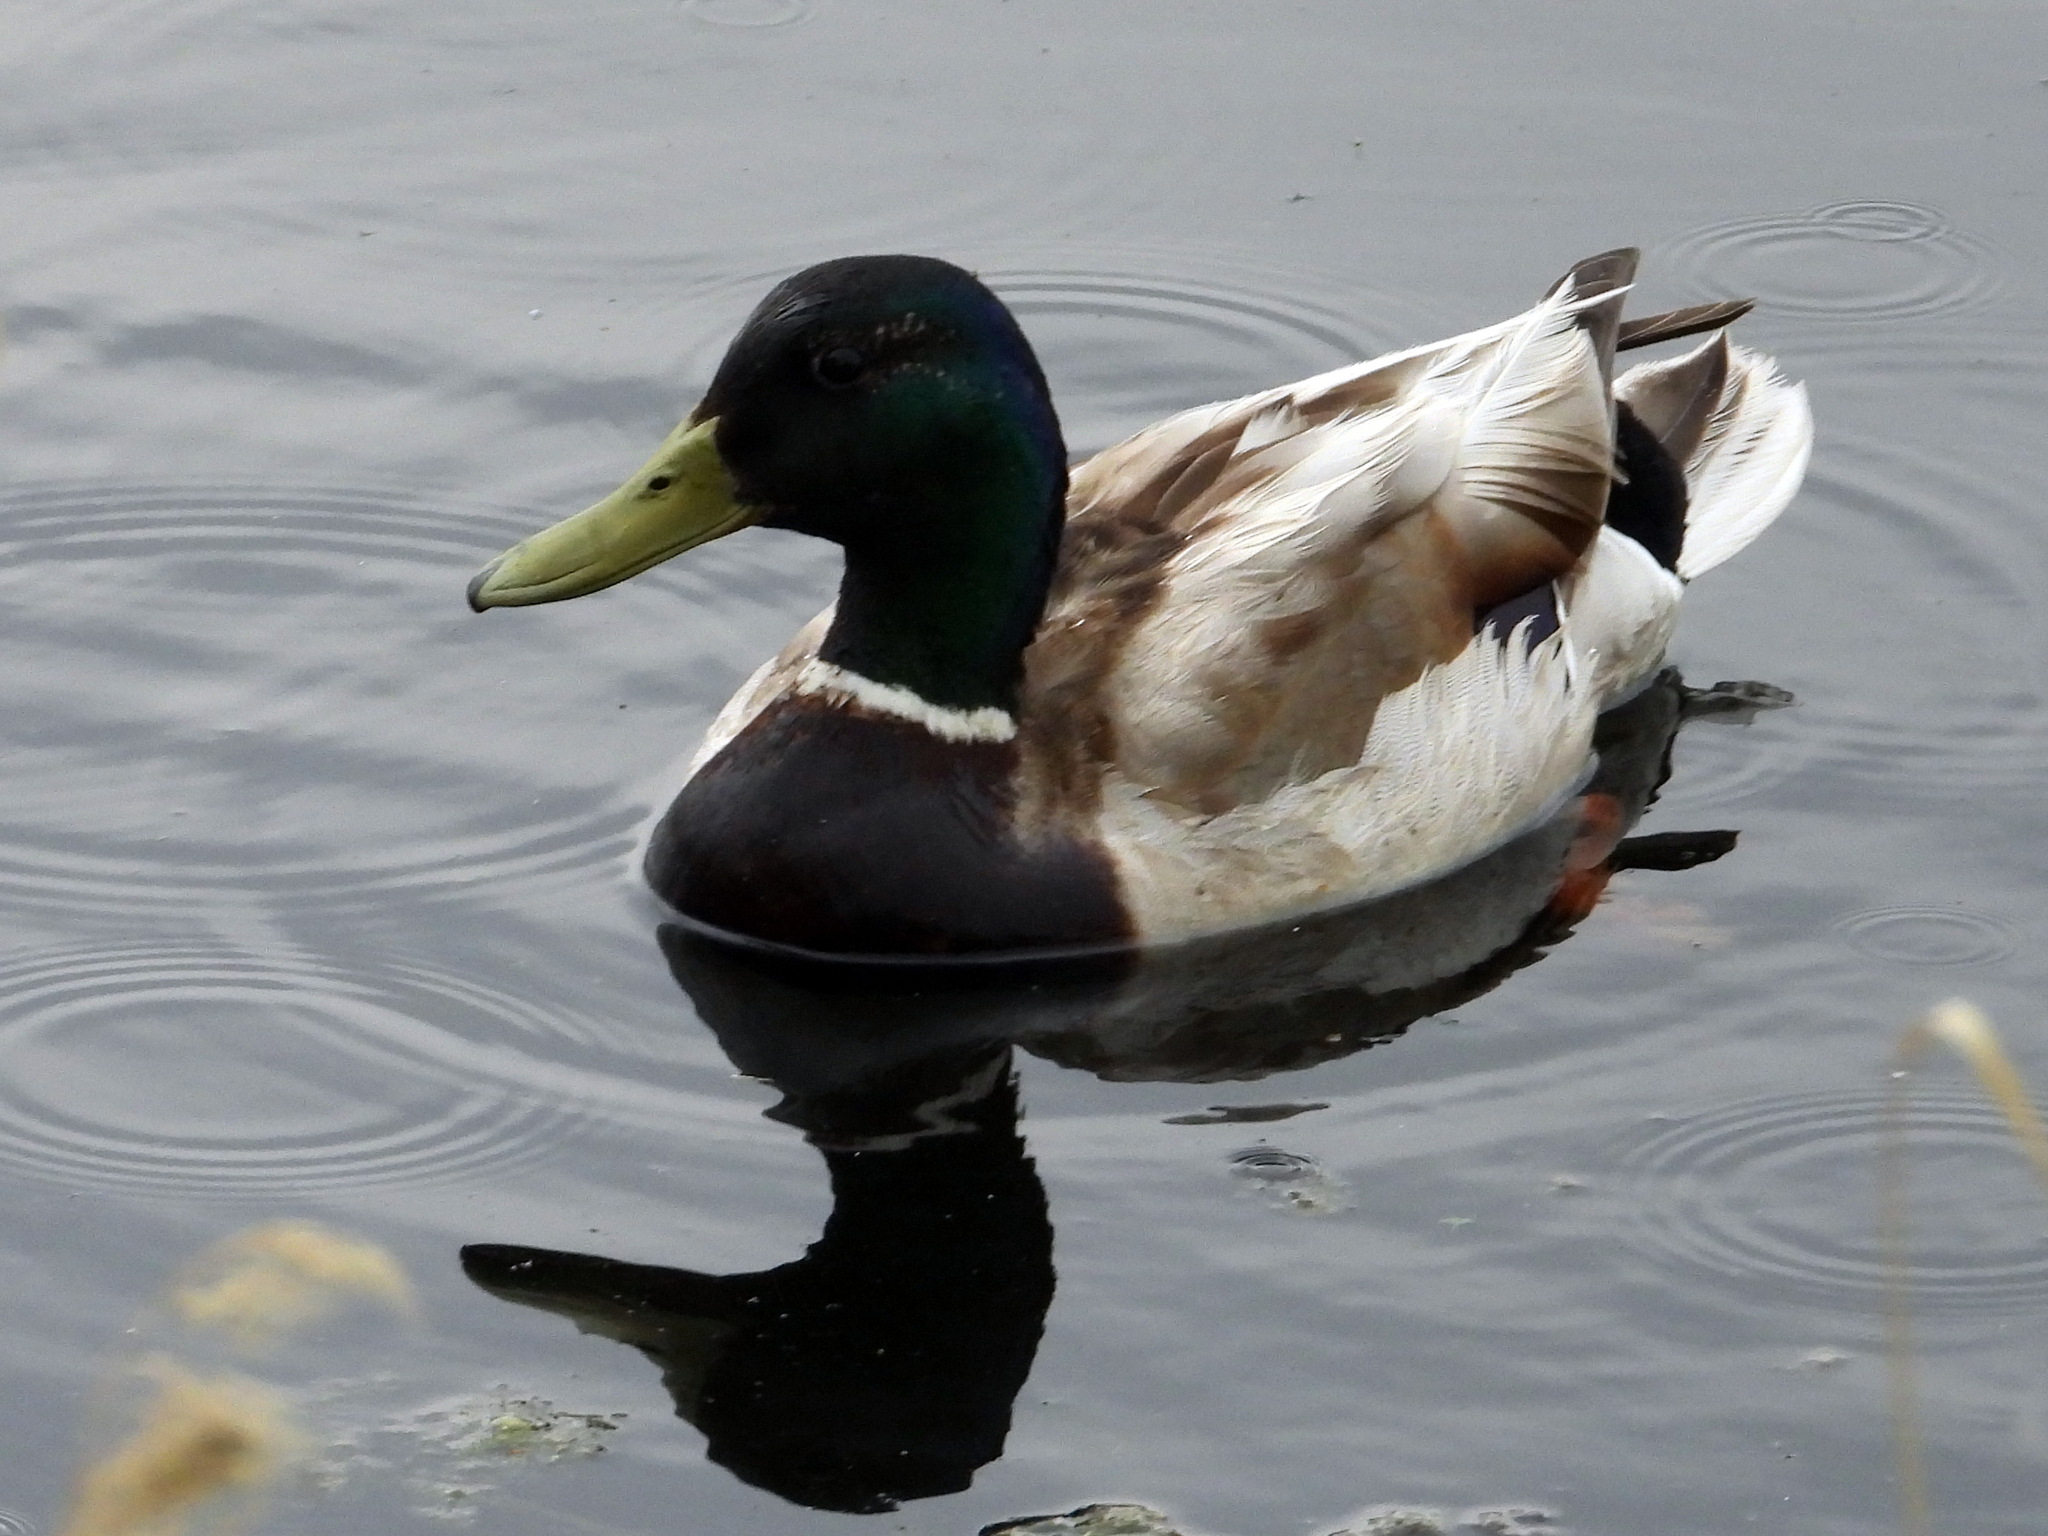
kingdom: Animalia
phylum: Chordata
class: Aves
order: Anseriformes
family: Anatidae
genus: Anas
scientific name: Anas platyrhynchos
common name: Mallard
